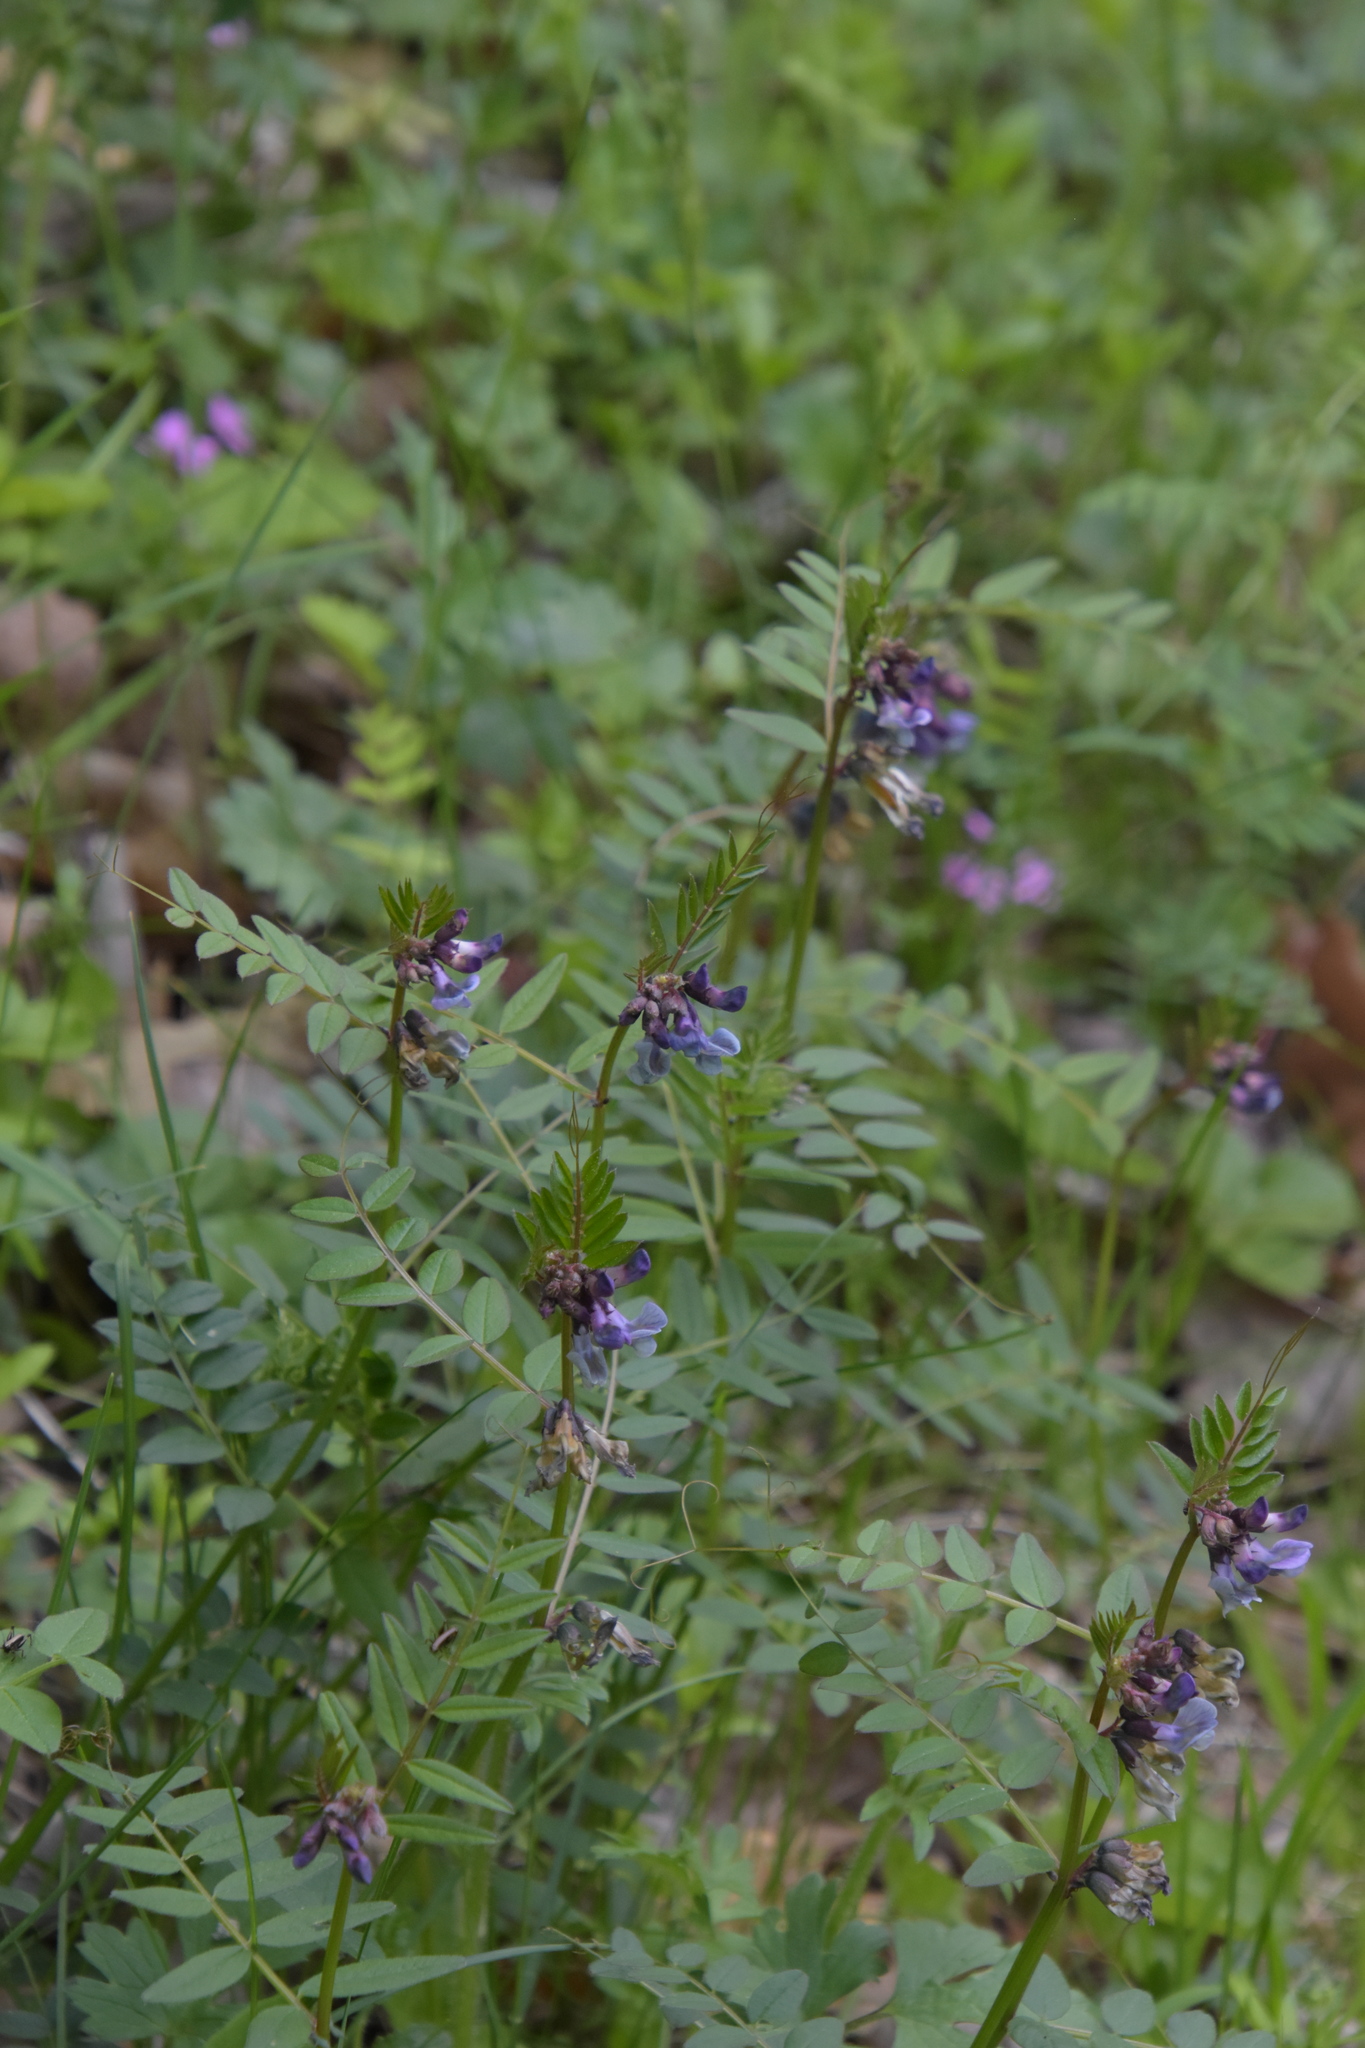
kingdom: Plantae
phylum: Tracheophyta
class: Magnoliopsida
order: Fabales
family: Fabaceae
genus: Vicia
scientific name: Vicia sepium
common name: Bush vetch
